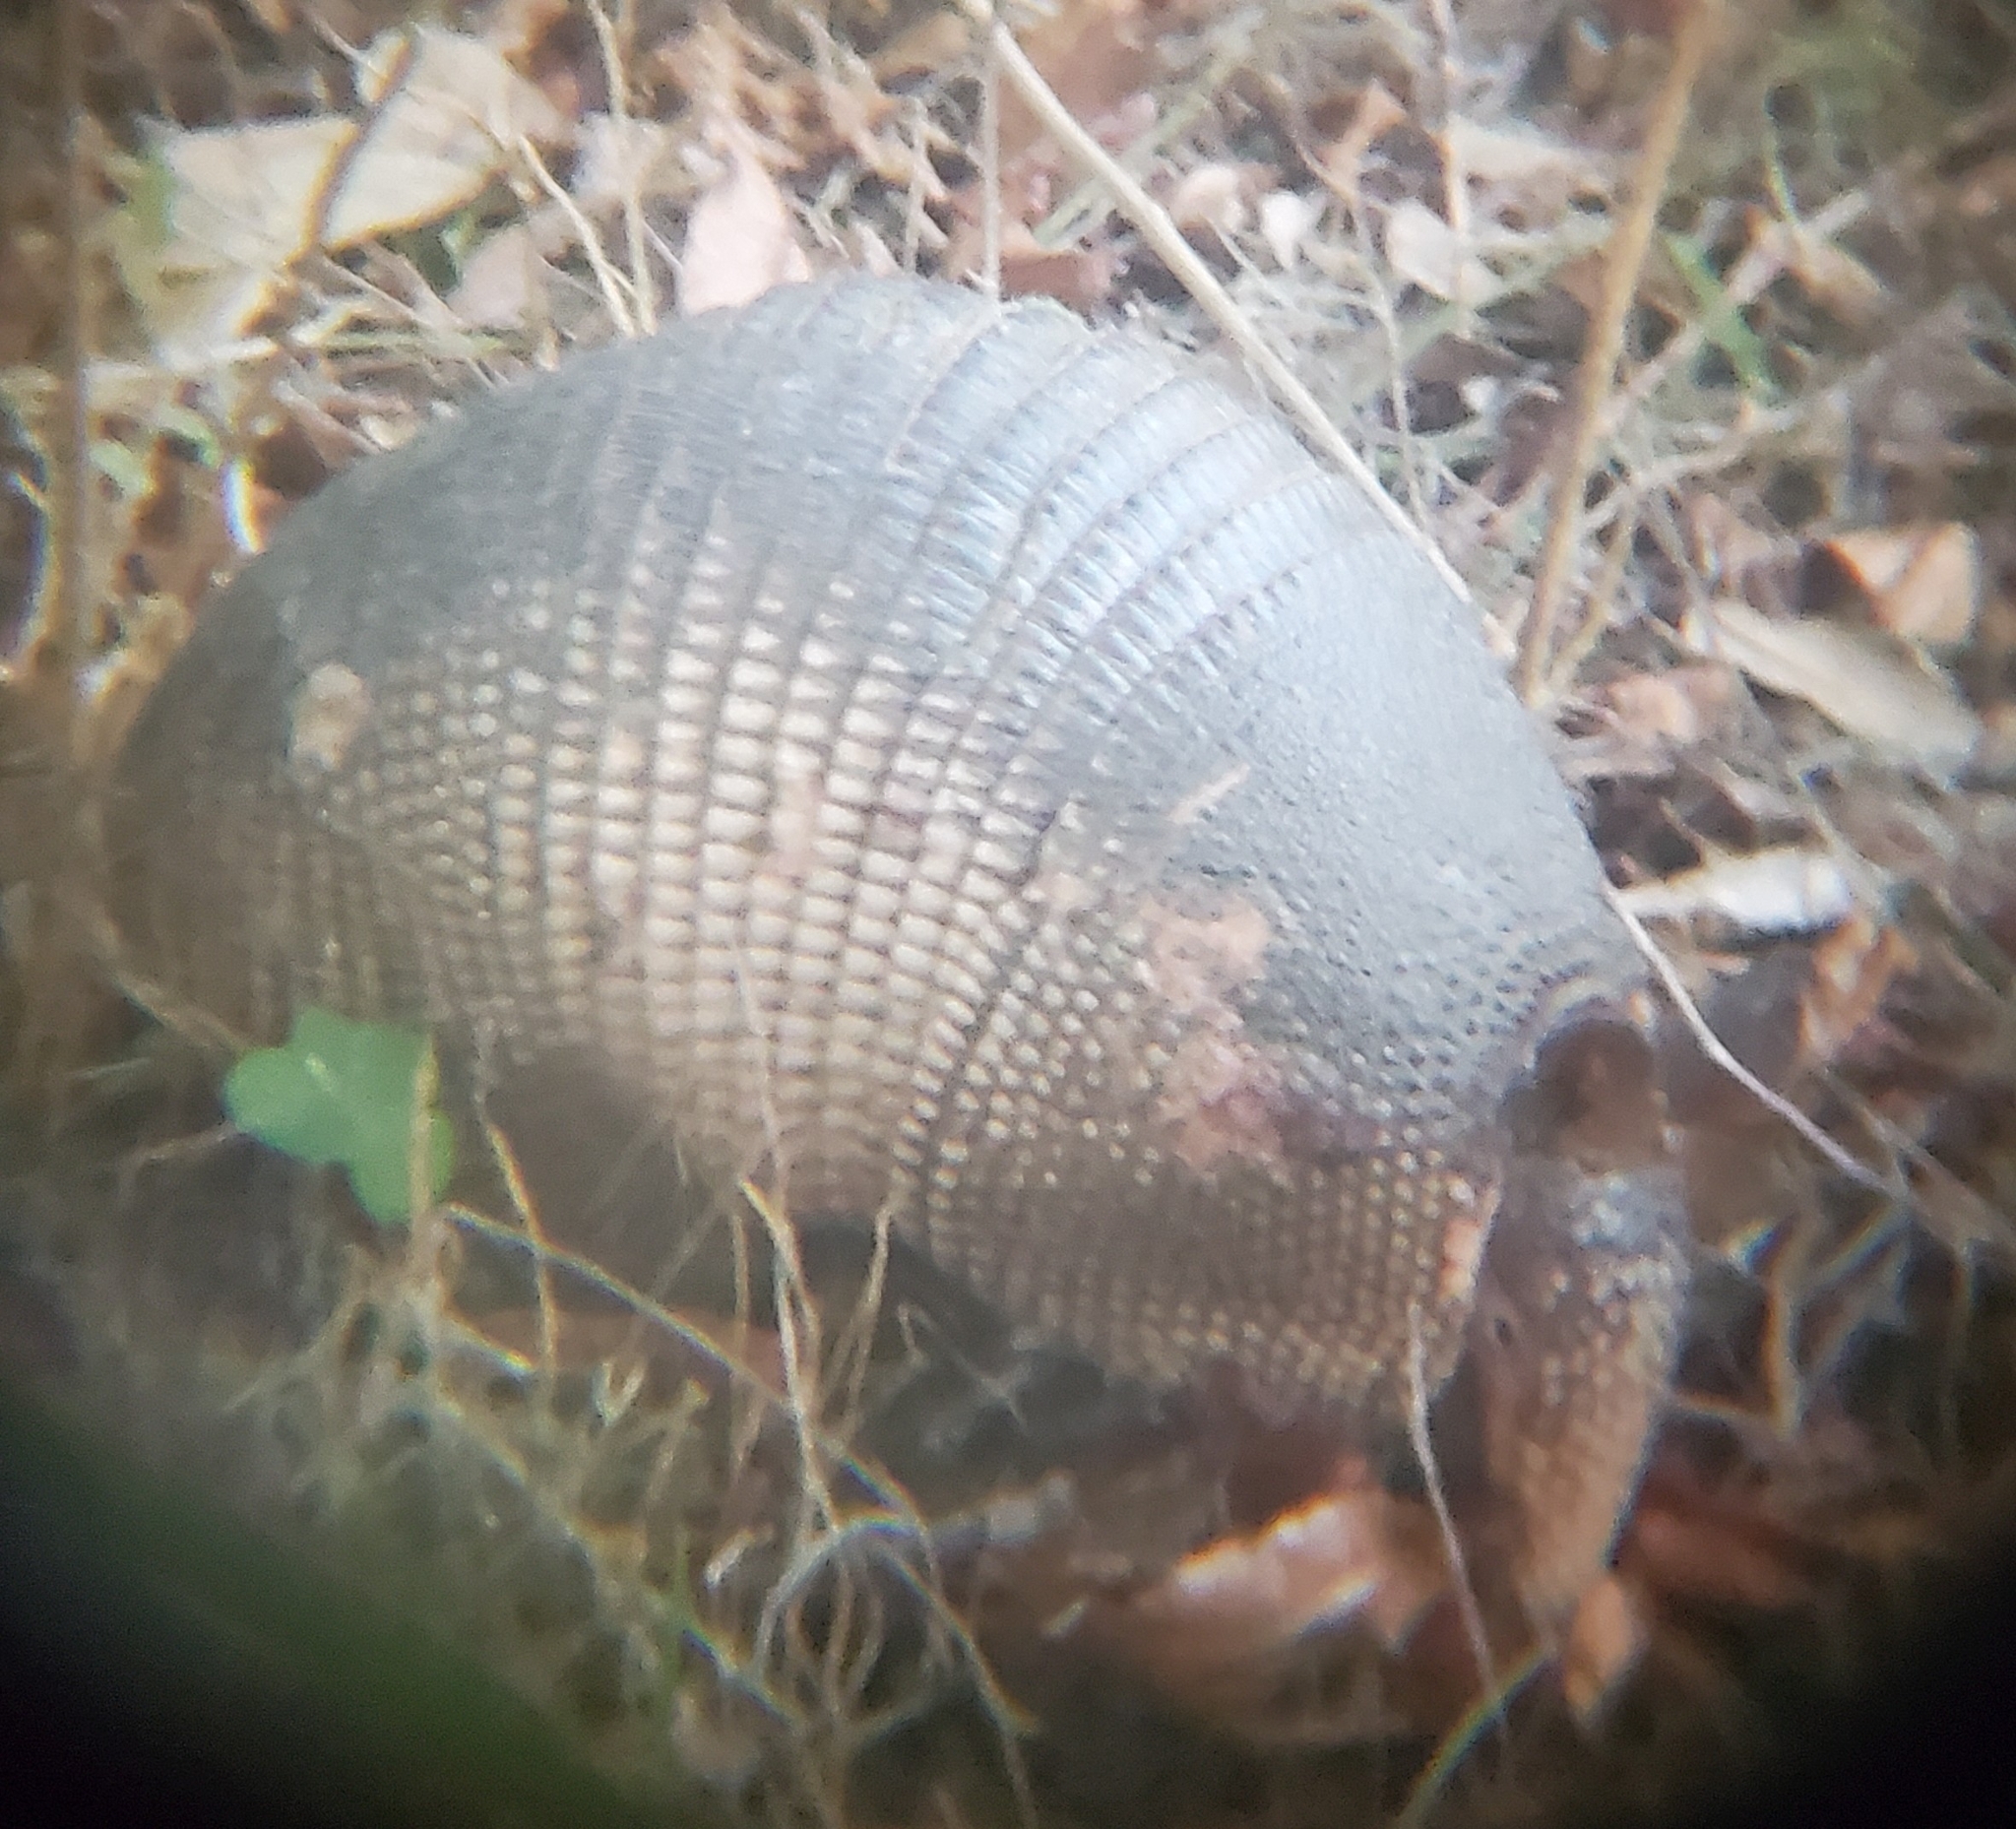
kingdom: Animalia
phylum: Chordata
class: Mammalia
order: Cingulata
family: Dasypodidae
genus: Dasypus
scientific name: Dasypus novemcinctus
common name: Nine-banded armadillo
